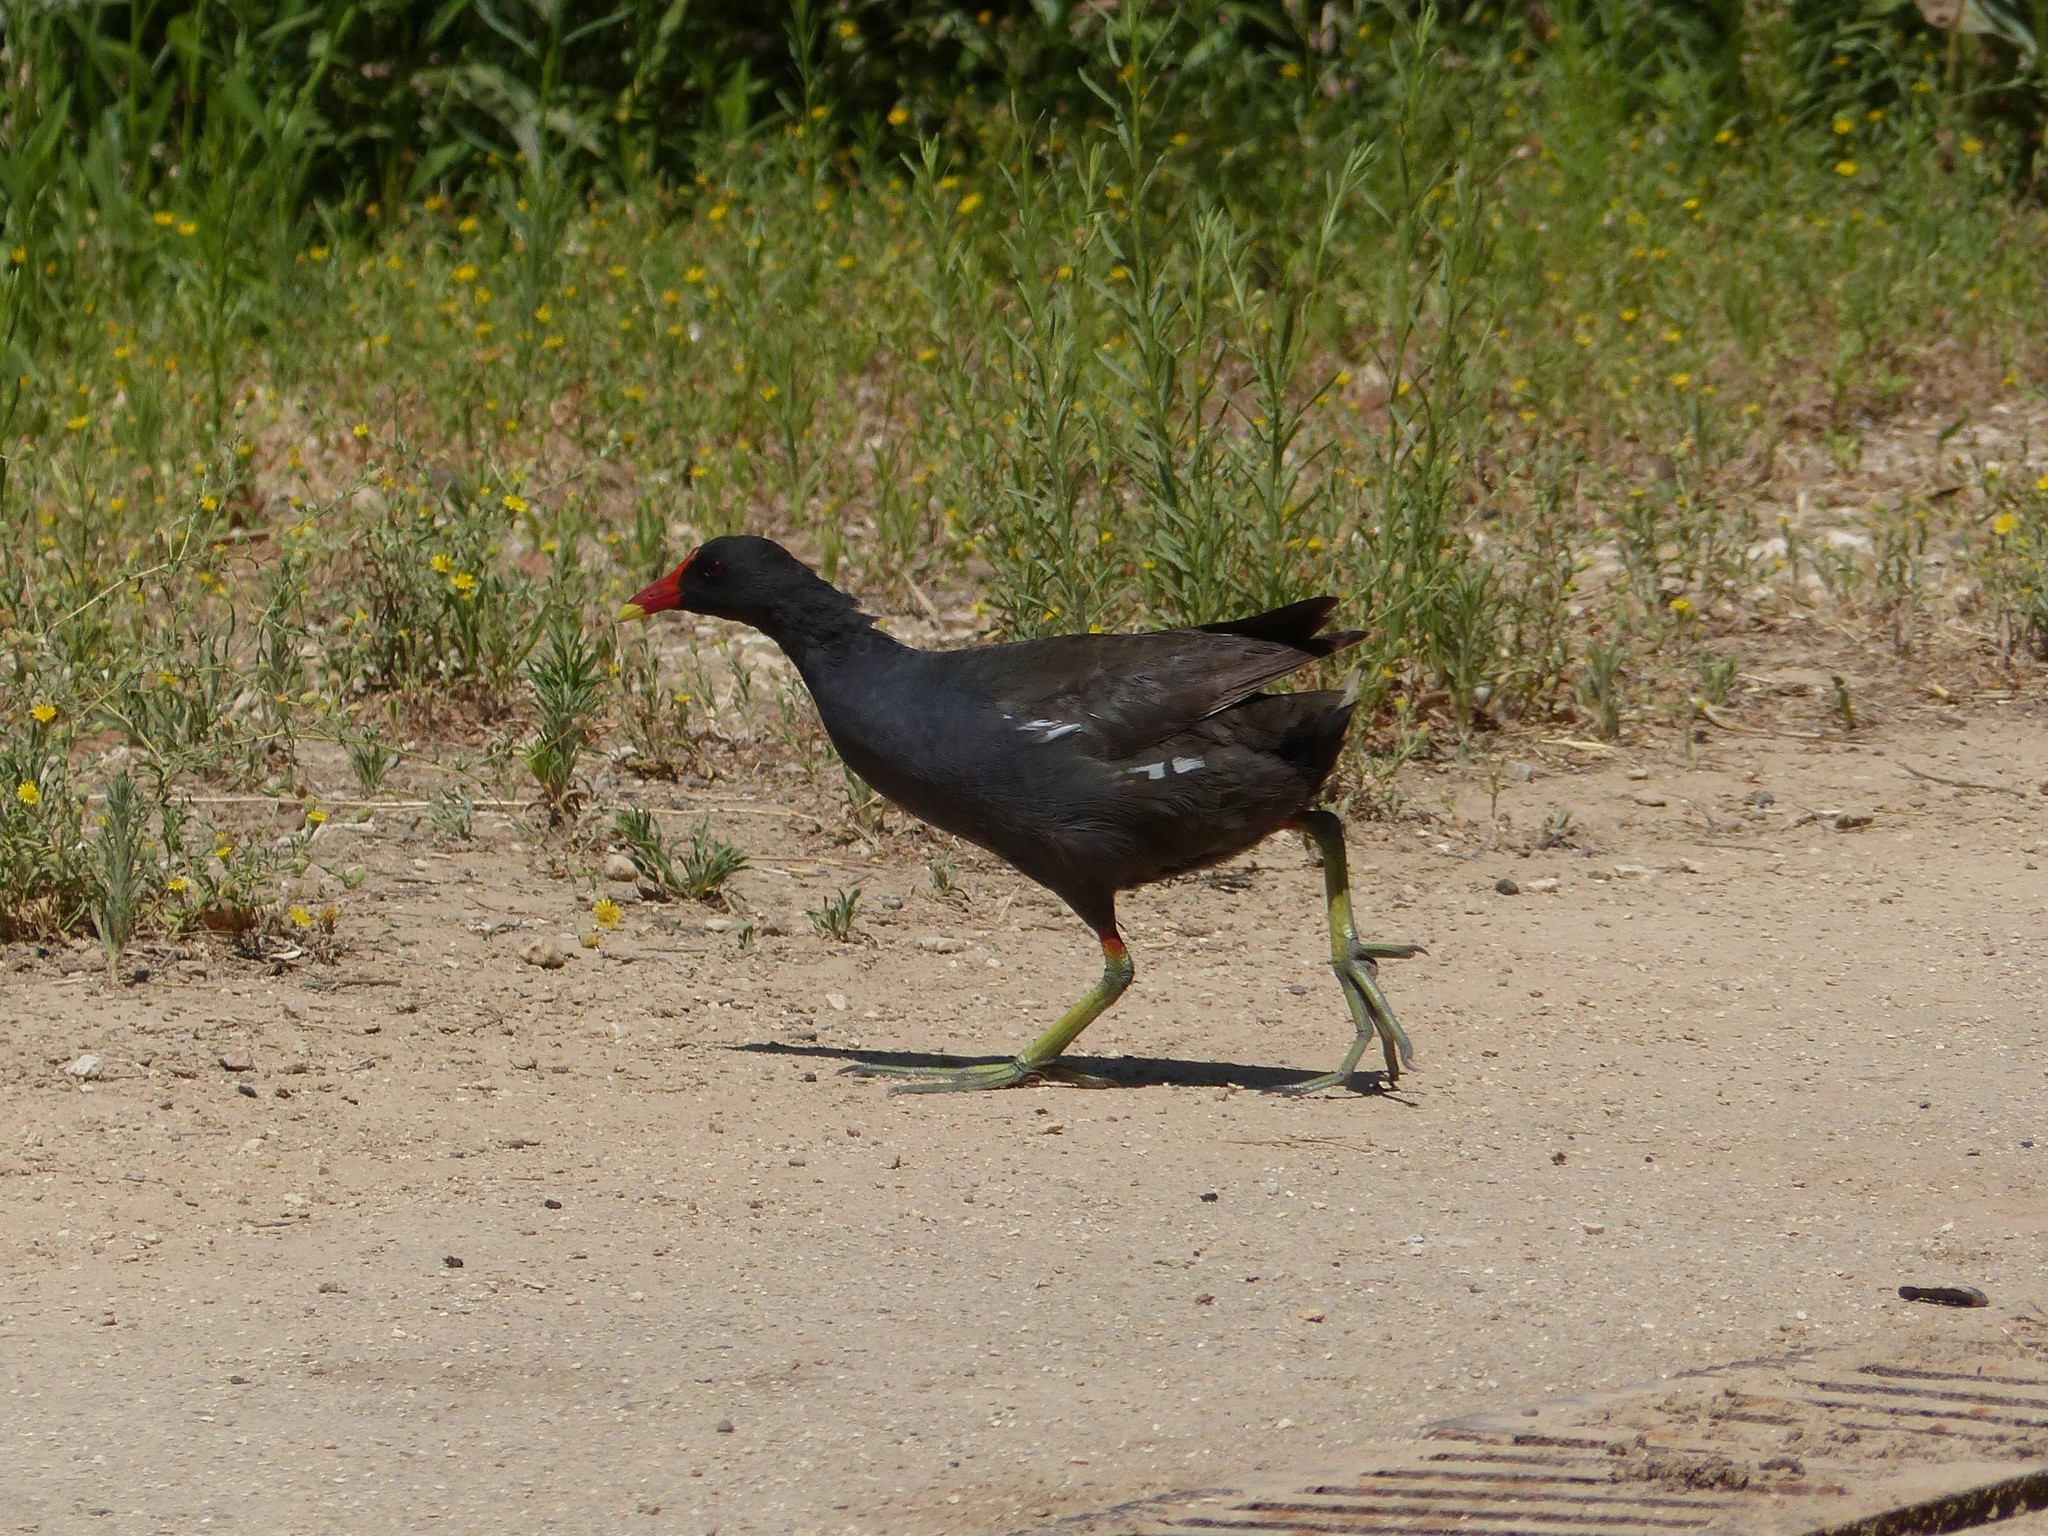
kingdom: Animalia
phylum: Chordata
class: Aves
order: Gruiformes
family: Rallidae
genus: Gallinula
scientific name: Gallinula chloropus
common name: Common moorhen
